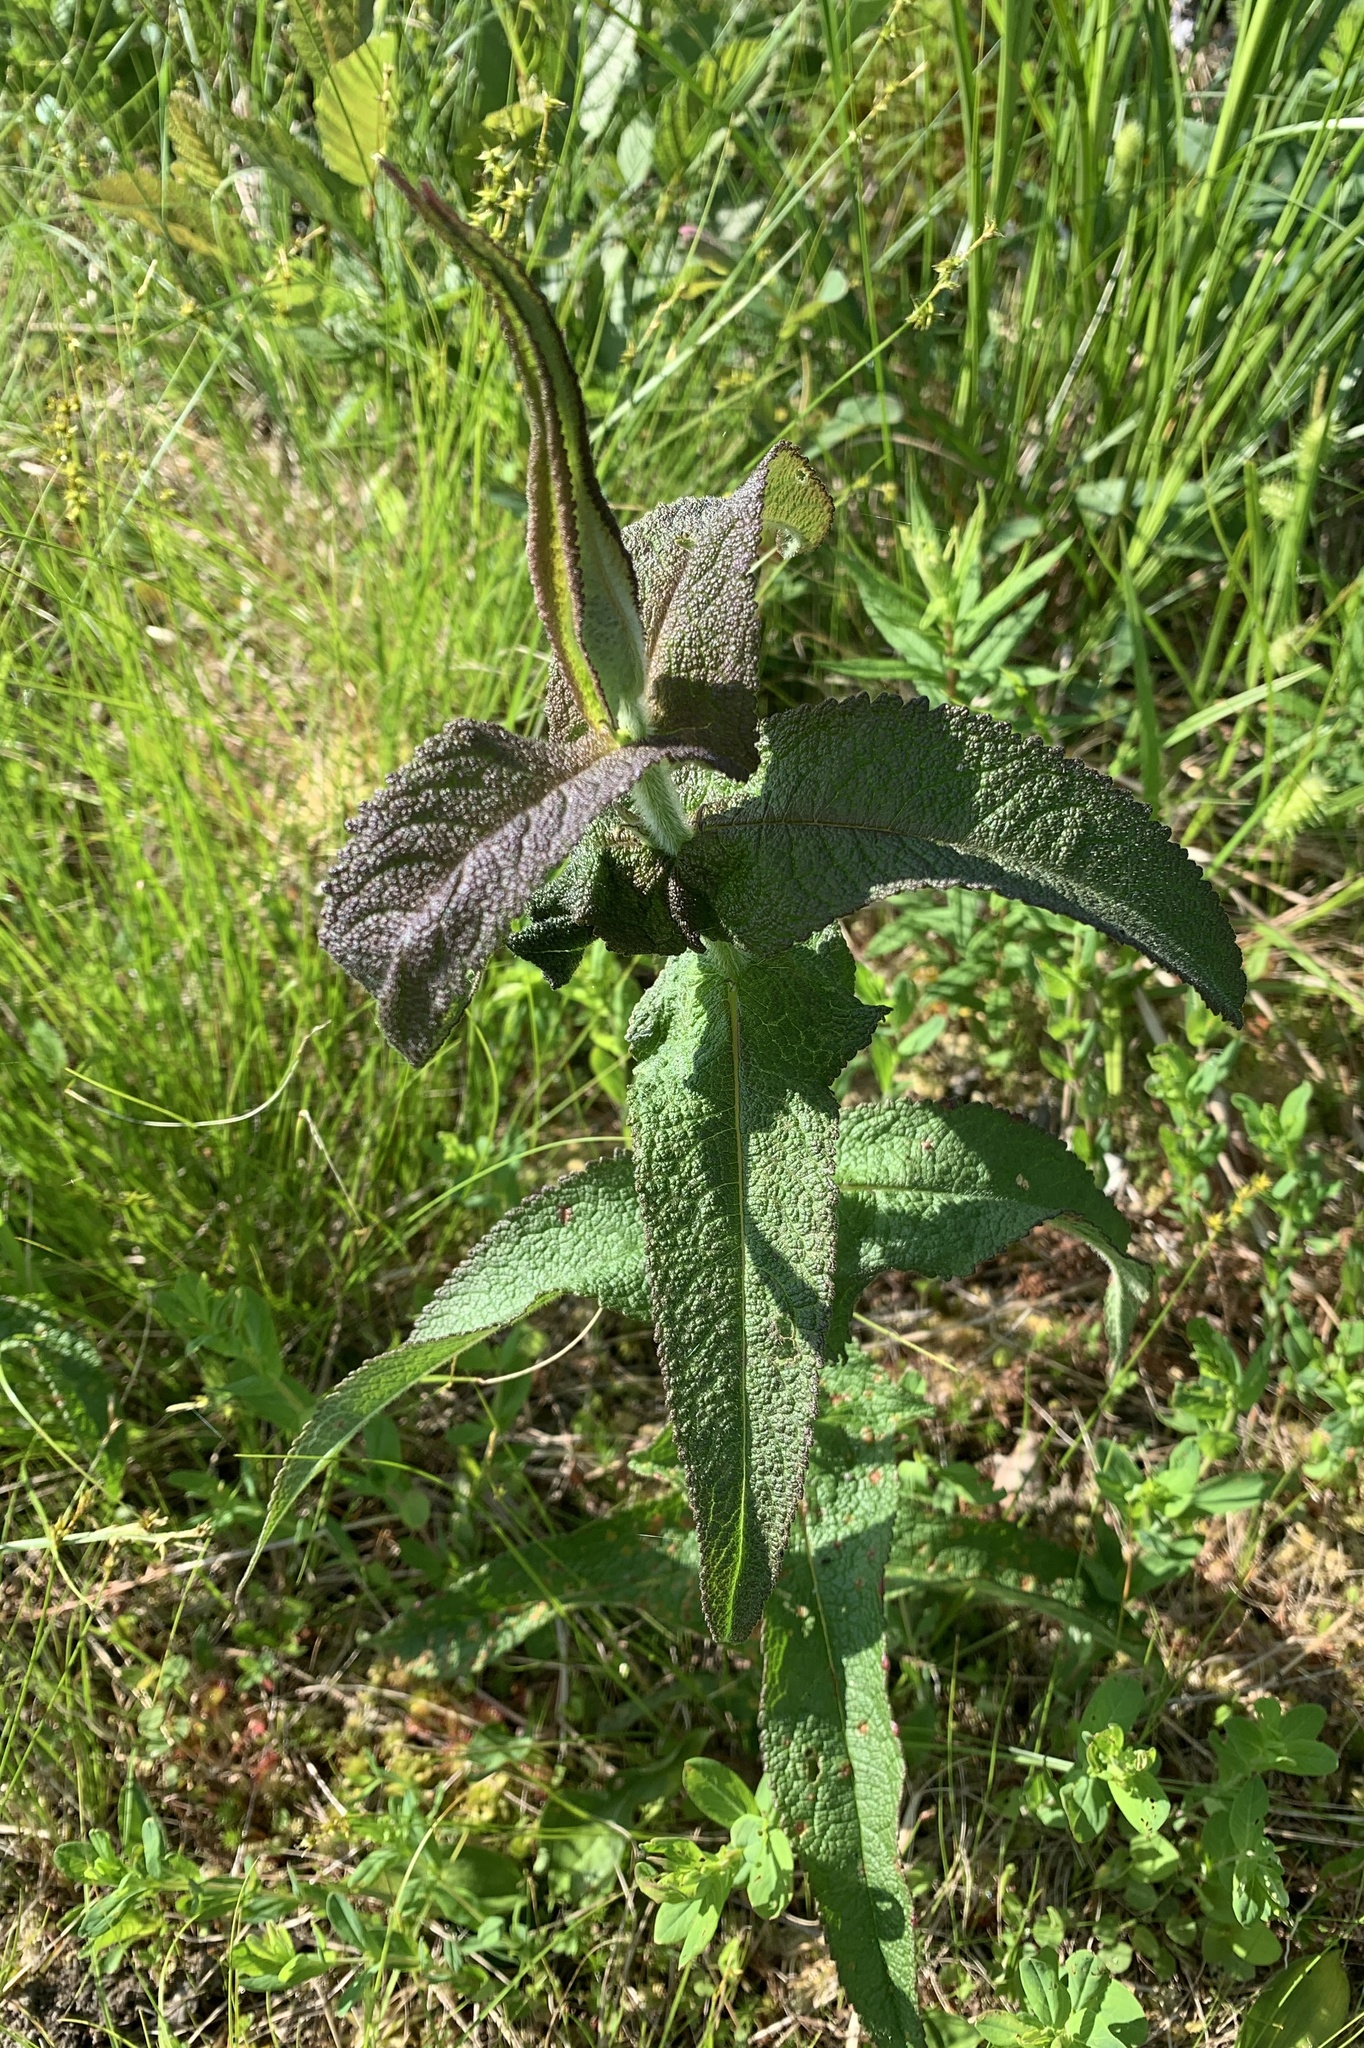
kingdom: Plantae
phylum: Tracheophyta
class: Magnoliopsida
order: Asterales
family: Asteraceae
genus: Eupatorium
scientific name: Eupatorium perfoliatum
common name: Boneset
